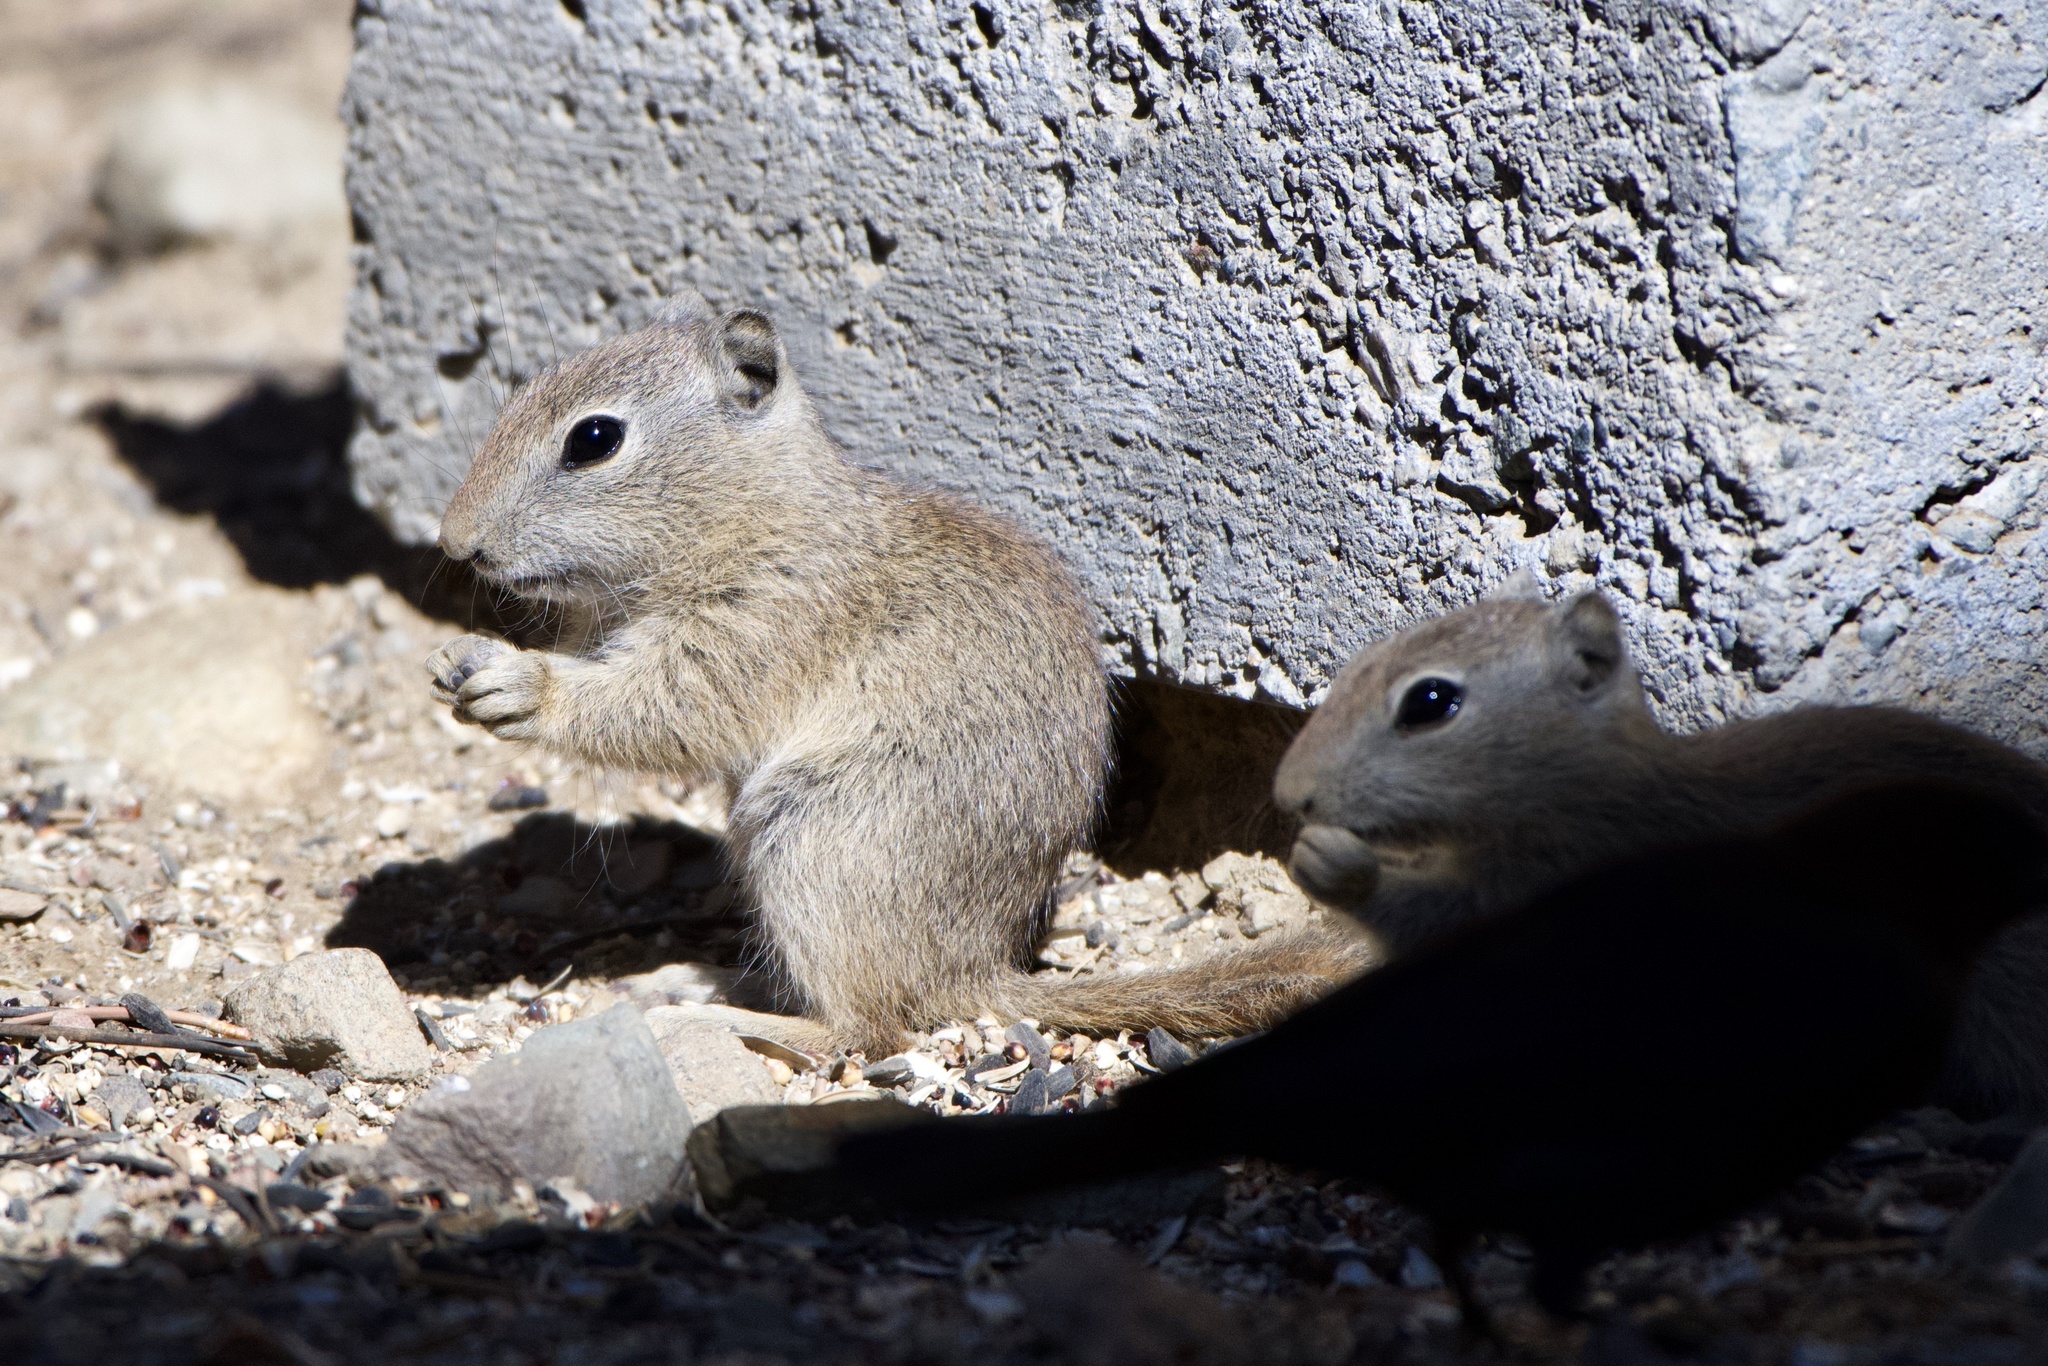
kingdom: Animalia
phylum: Chordata
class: Mammalia
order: Rodentia
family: Sciuridae
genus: Urocitellus
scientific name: Urocitellus beldingi
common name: Belding's ground squirrel
